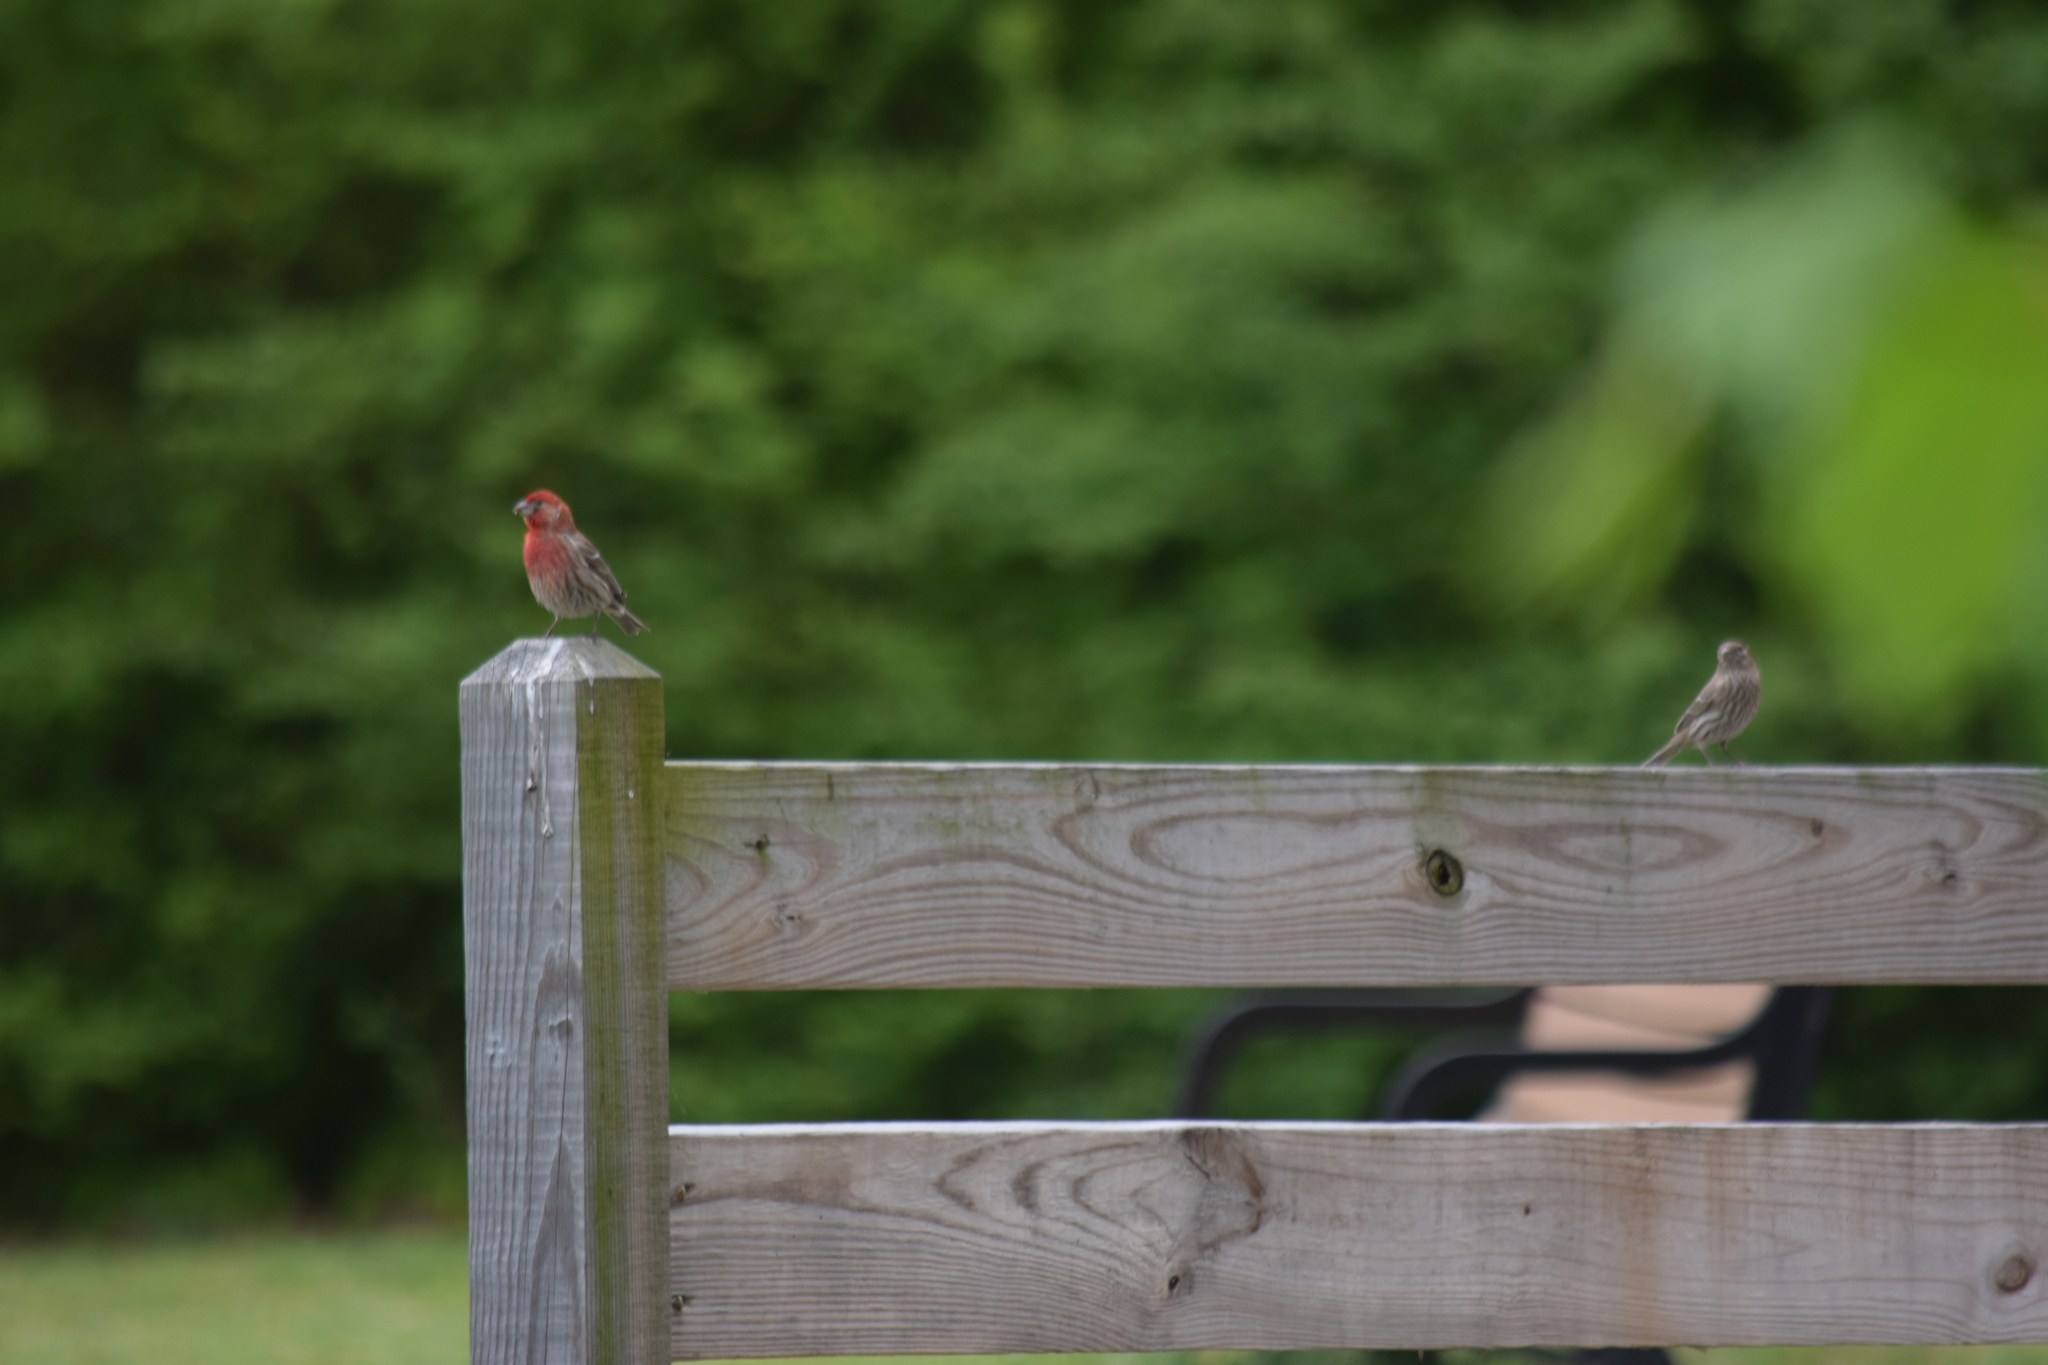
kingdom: Animalia
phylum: Chordata
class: Aves
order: Passeriformes
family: Fringillidae
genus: Haemorhous
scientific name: Haemorhous mexicanus
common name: House finch
